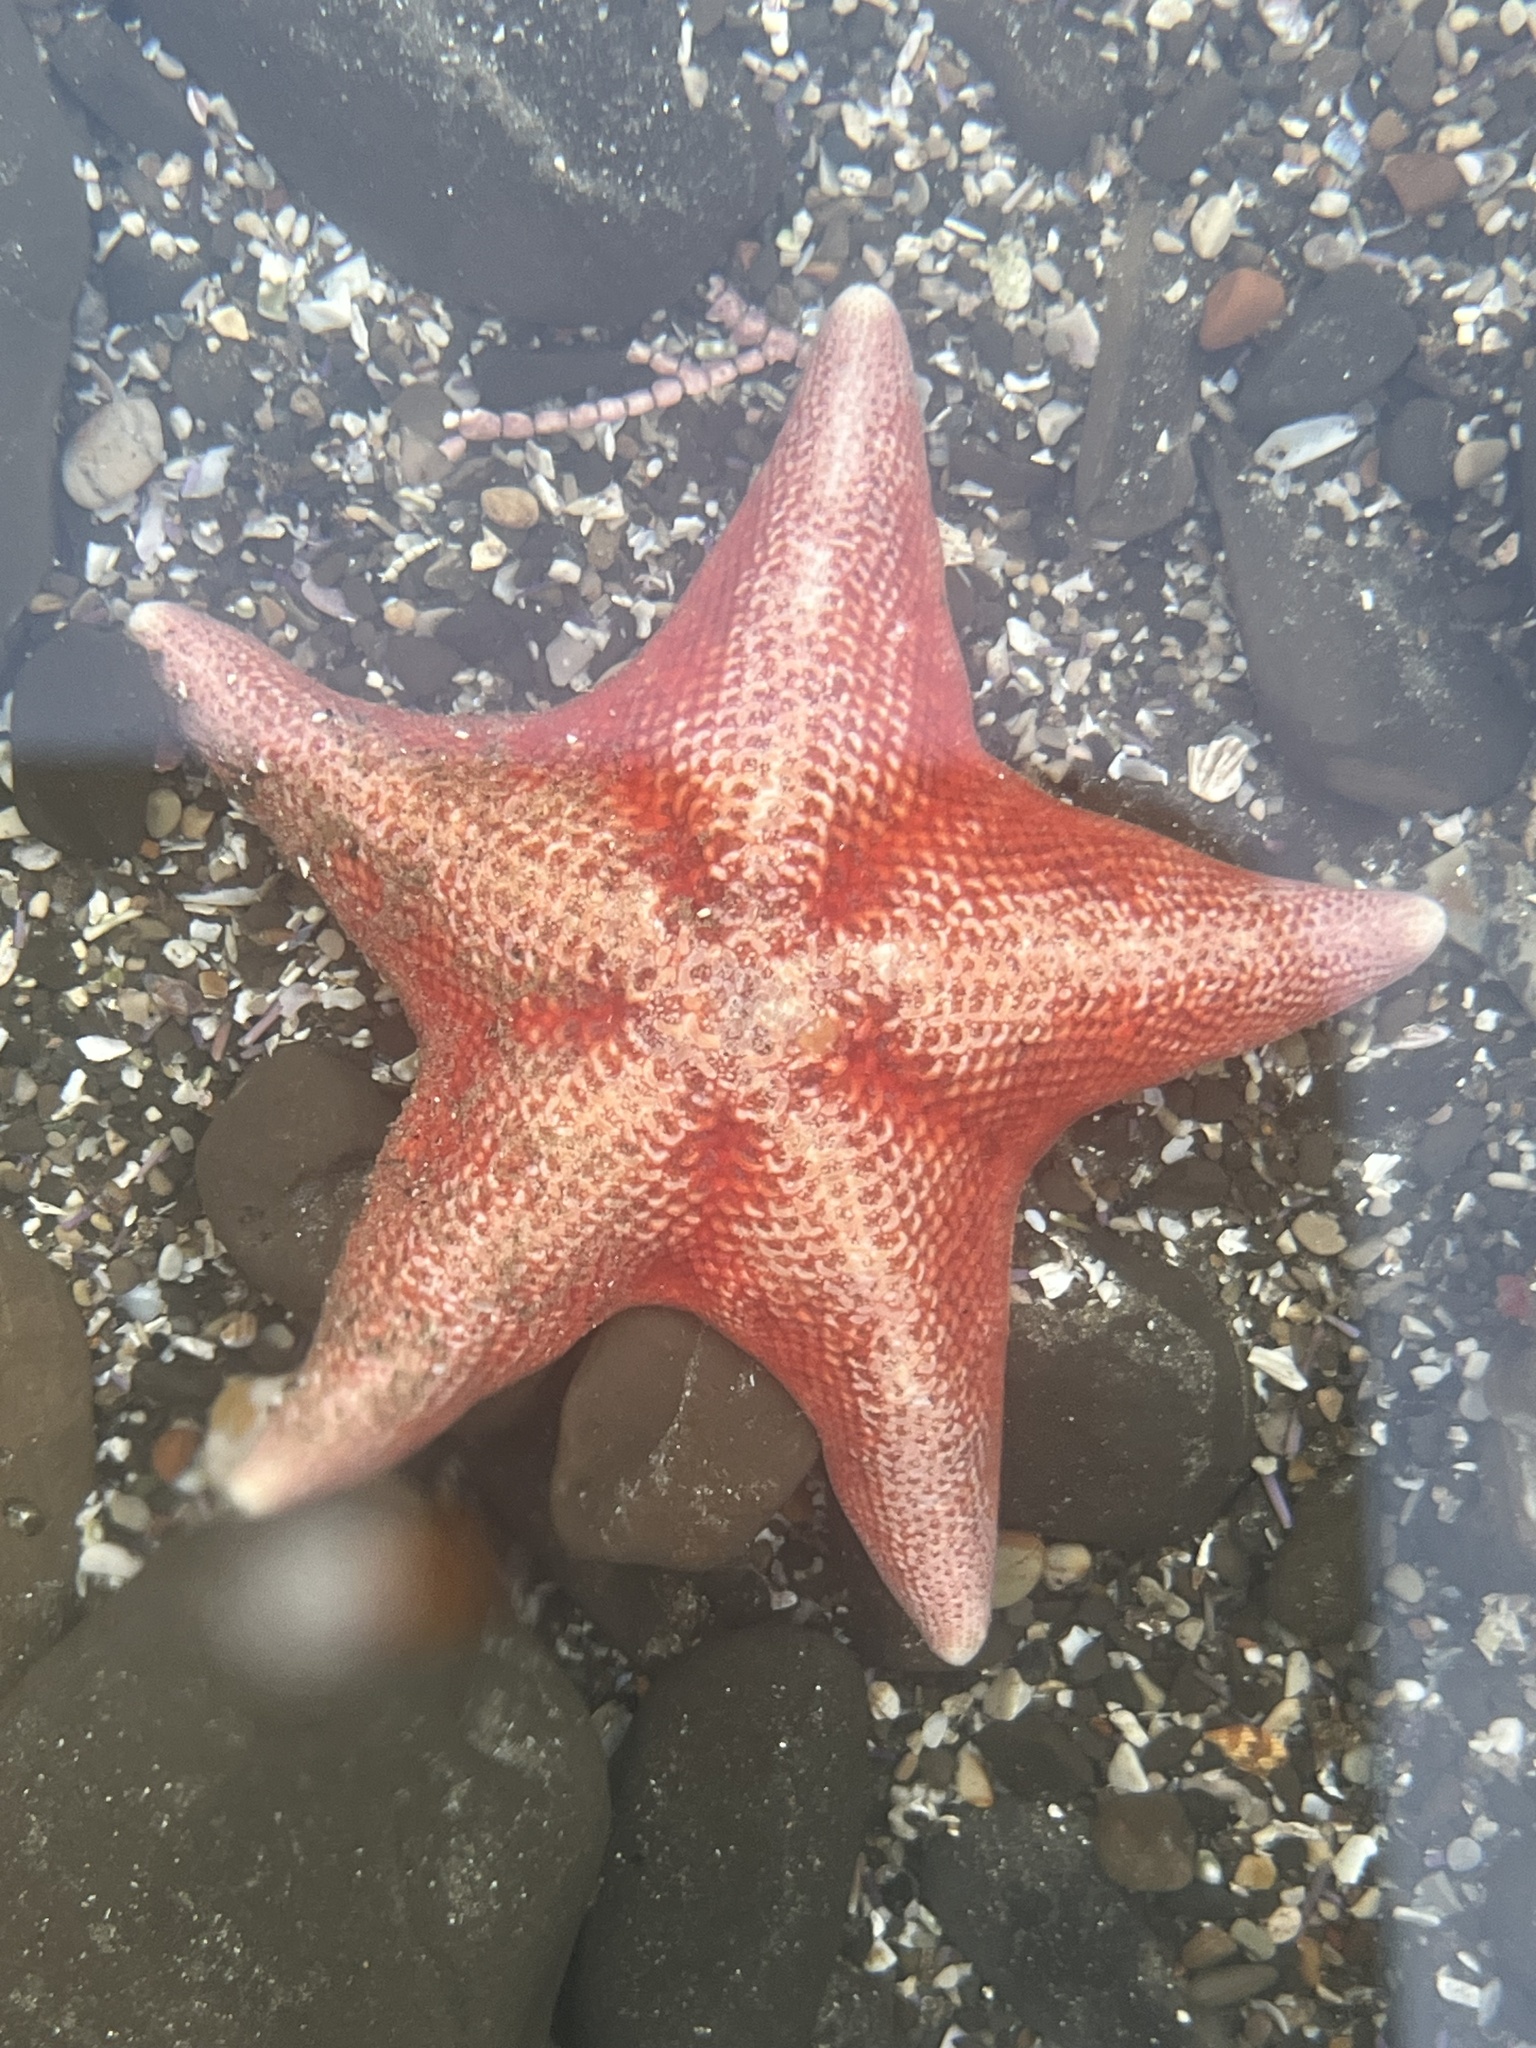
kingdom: Animalia
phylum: Echinodermata
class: Asteroidea
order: Valvatida
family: Asterinidae
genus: Patiria
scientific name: Patiria miniata
